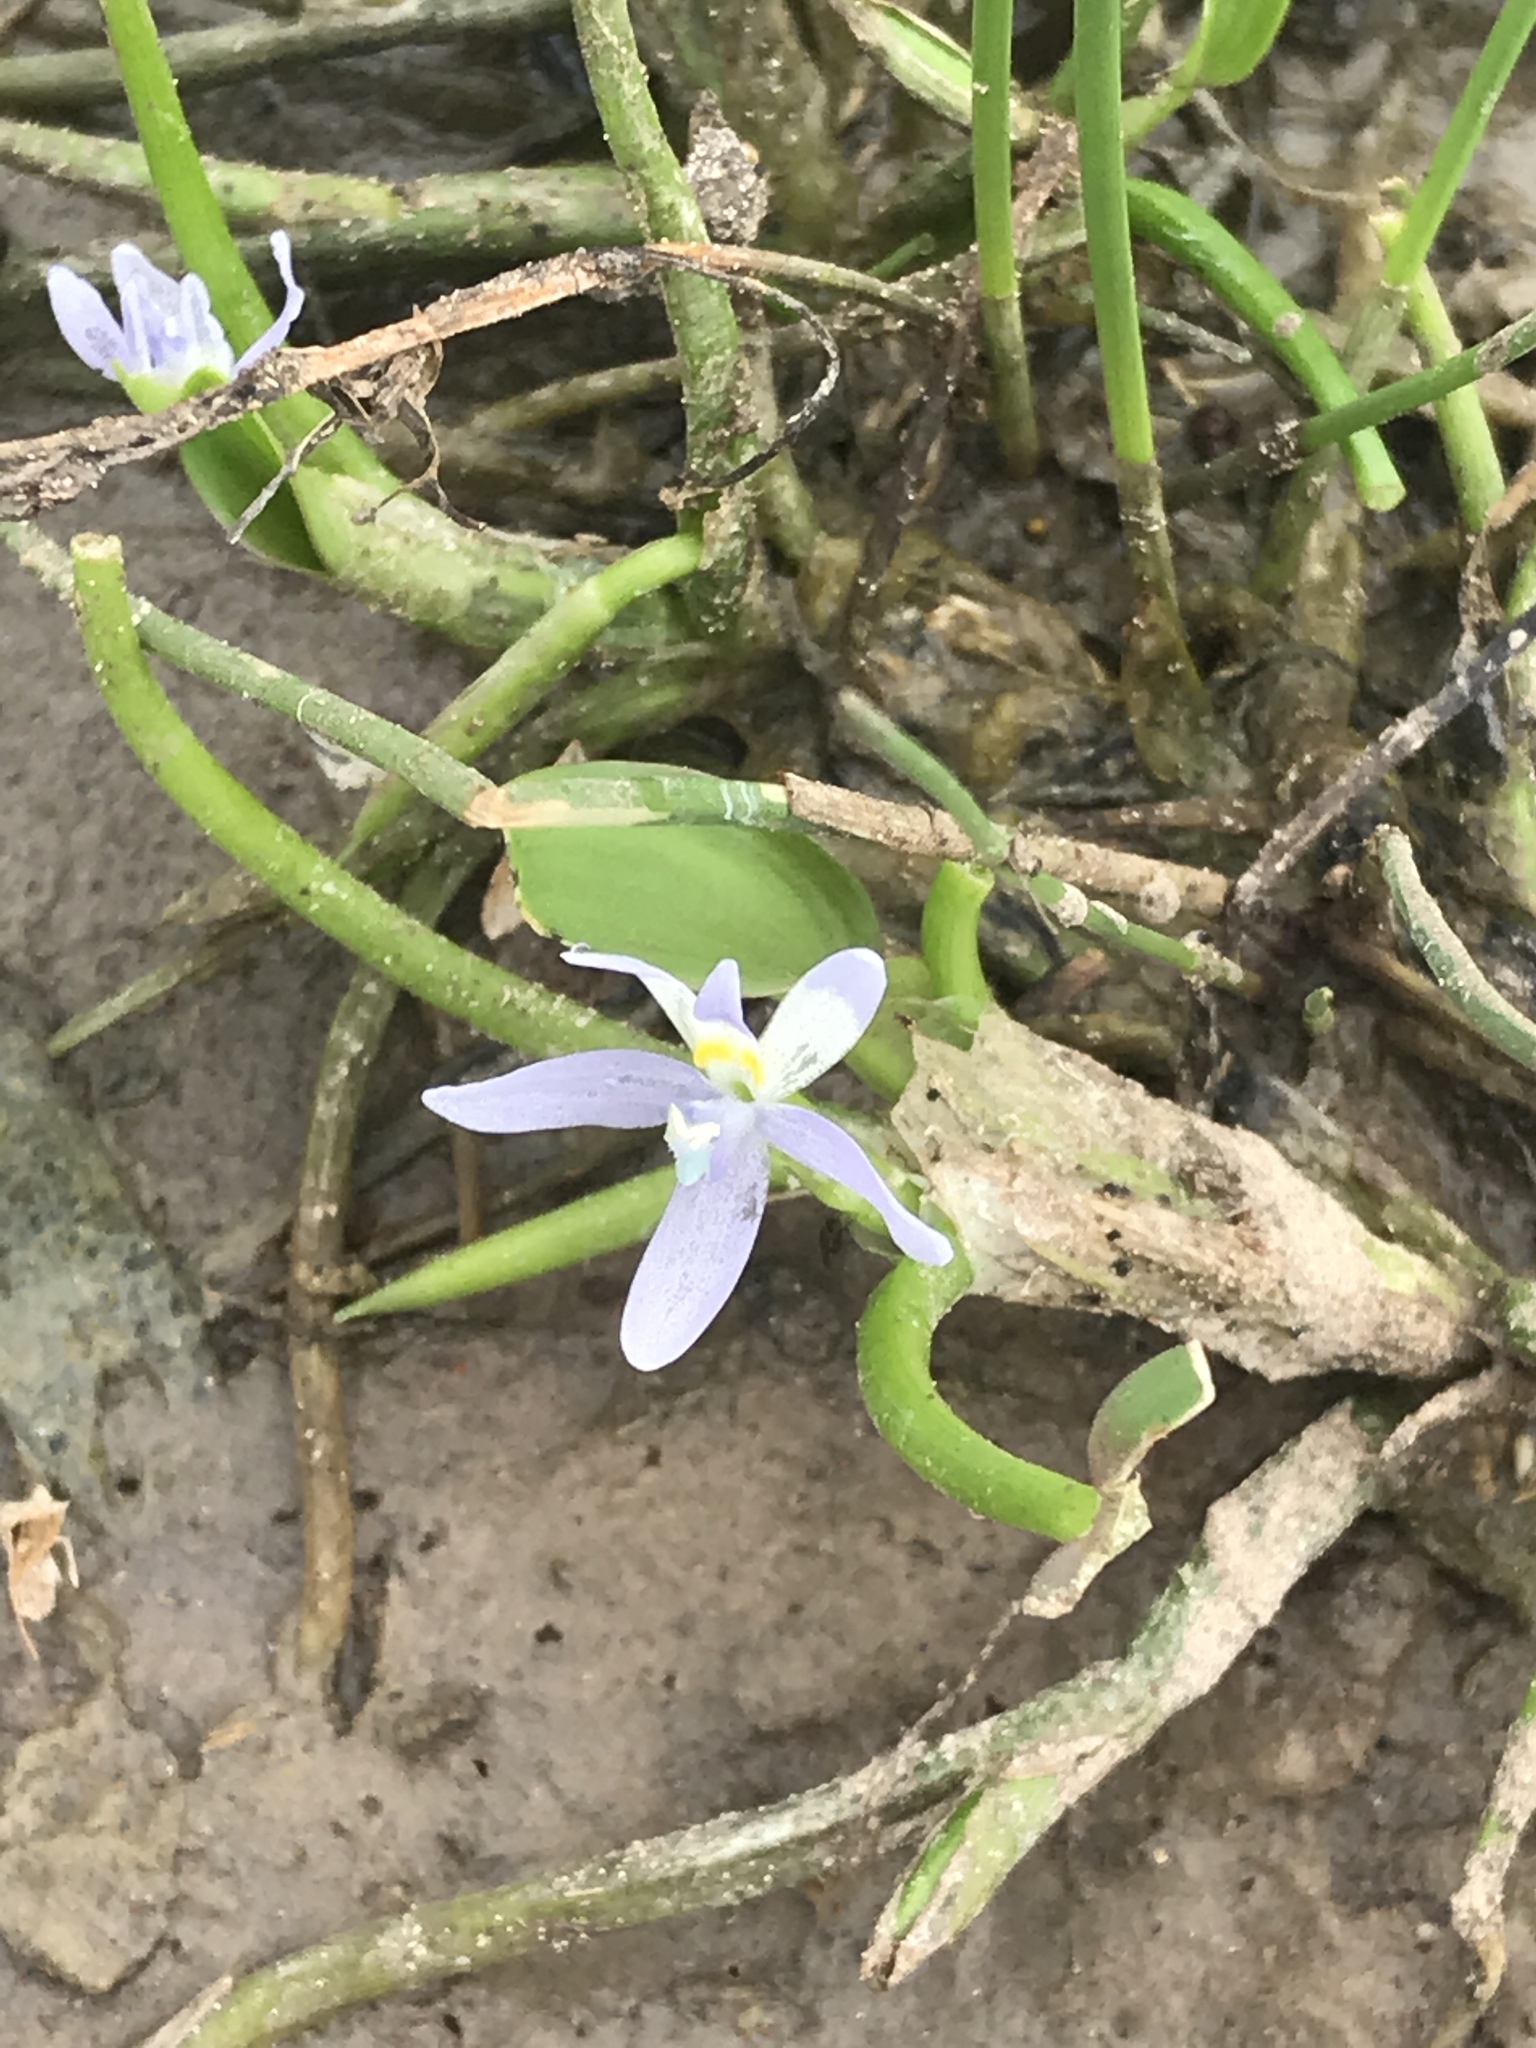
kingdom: Plantae
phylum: Tracheophyta
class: Liliopsida
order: Commelinales
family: Pontederiaceae
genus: Heteranthera
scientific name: Heteranthera limosa
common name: Blue mud-plantain
